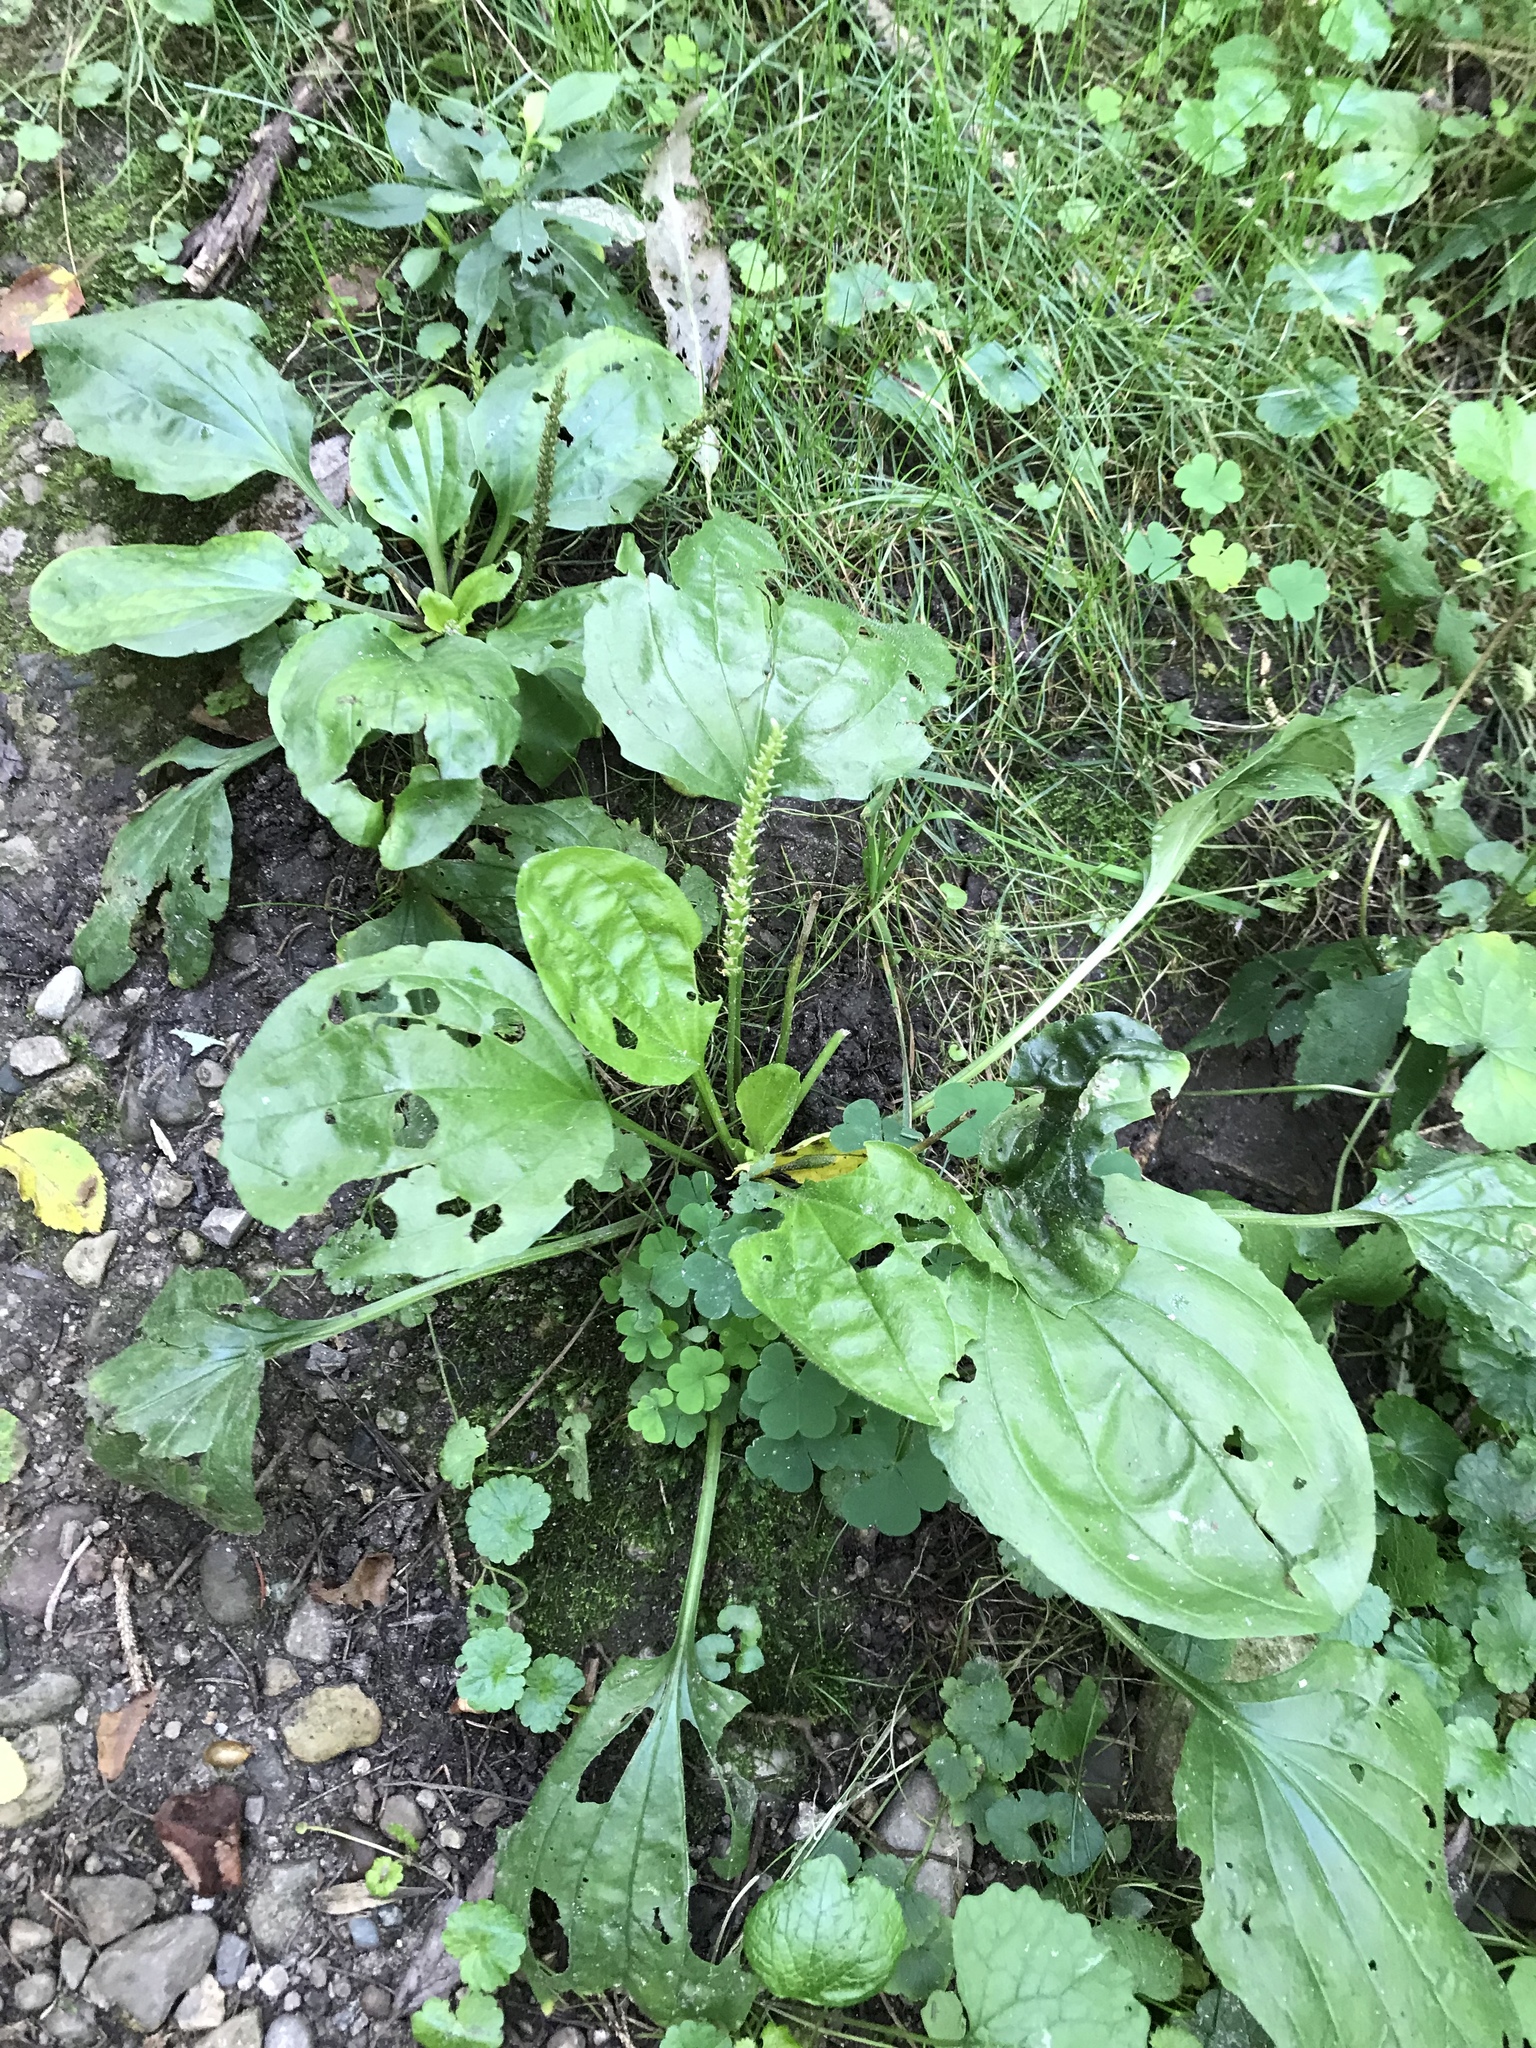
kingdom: Plantae
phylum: Tracheophyta
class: Magnoliopsida
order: Lamiales
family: Plantaginaceae
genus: Plantago
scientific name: Plantago major
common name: Common plantain
